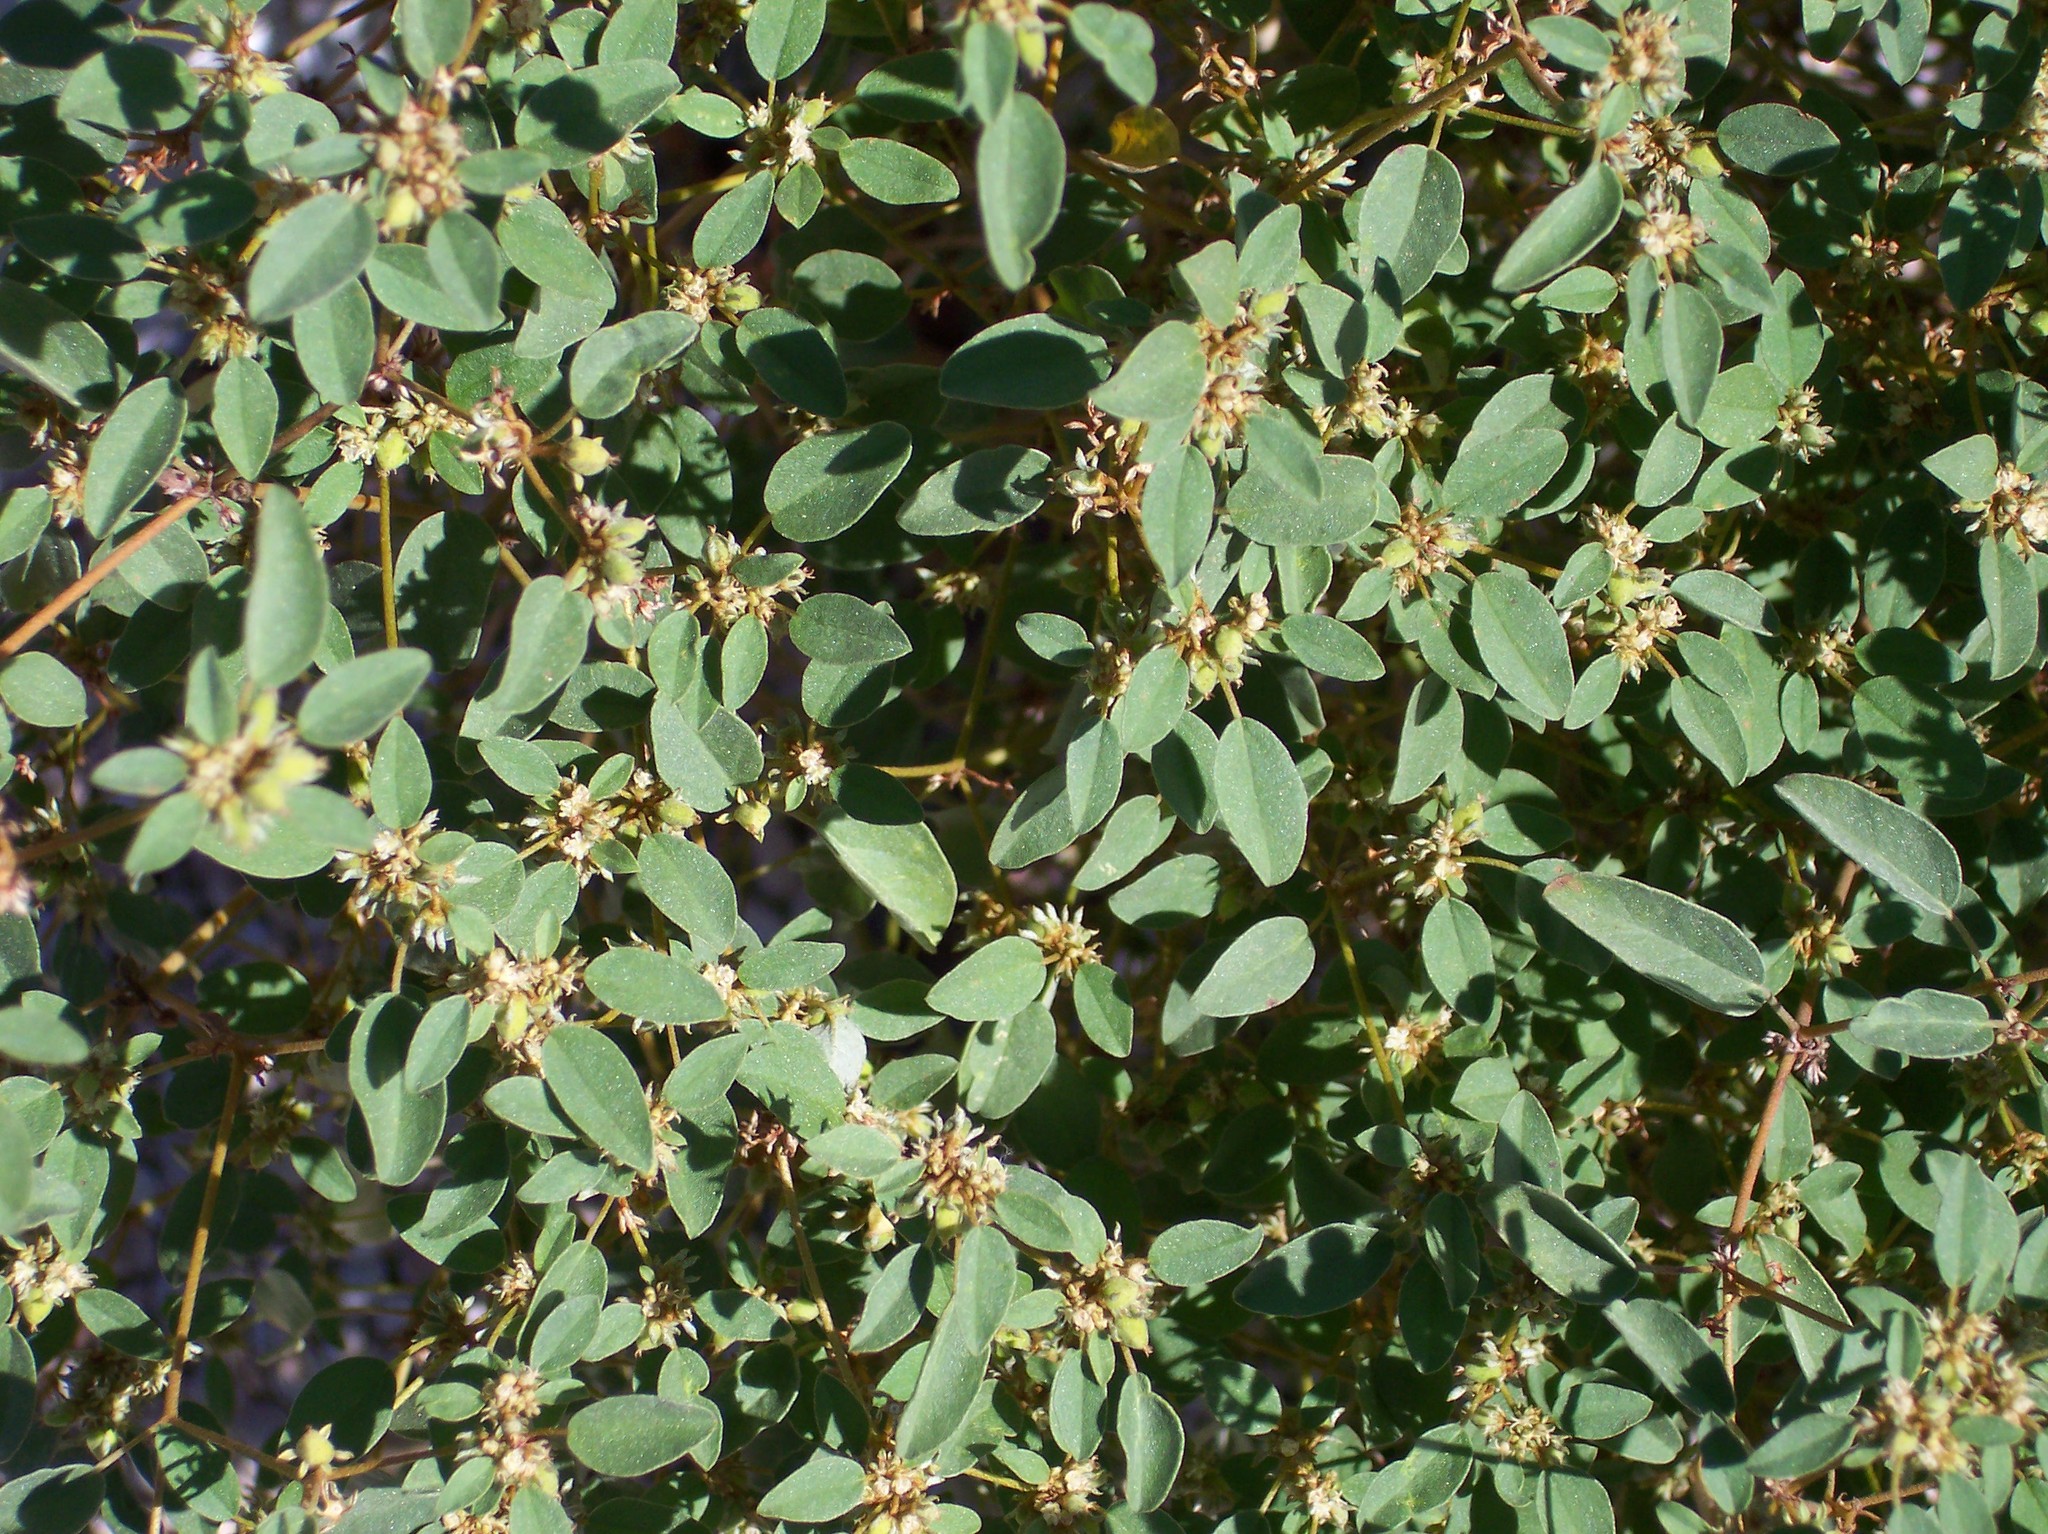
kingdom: Plantae
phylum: Tracheophyta
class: Magnoliopsida
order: Malpighiales
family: Euphorbiaceae
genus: Croton
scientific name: Croton monanthogynus
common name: One-seed croton
